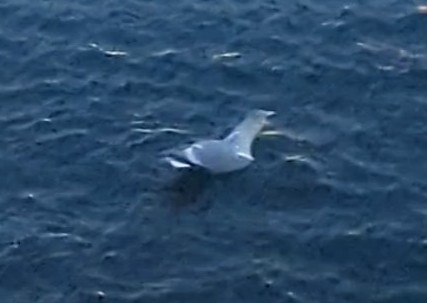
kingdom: Animalia
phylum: Chordata
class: Aves
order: Charadriiformes
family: Laridae
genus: Larus
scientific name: Larus
